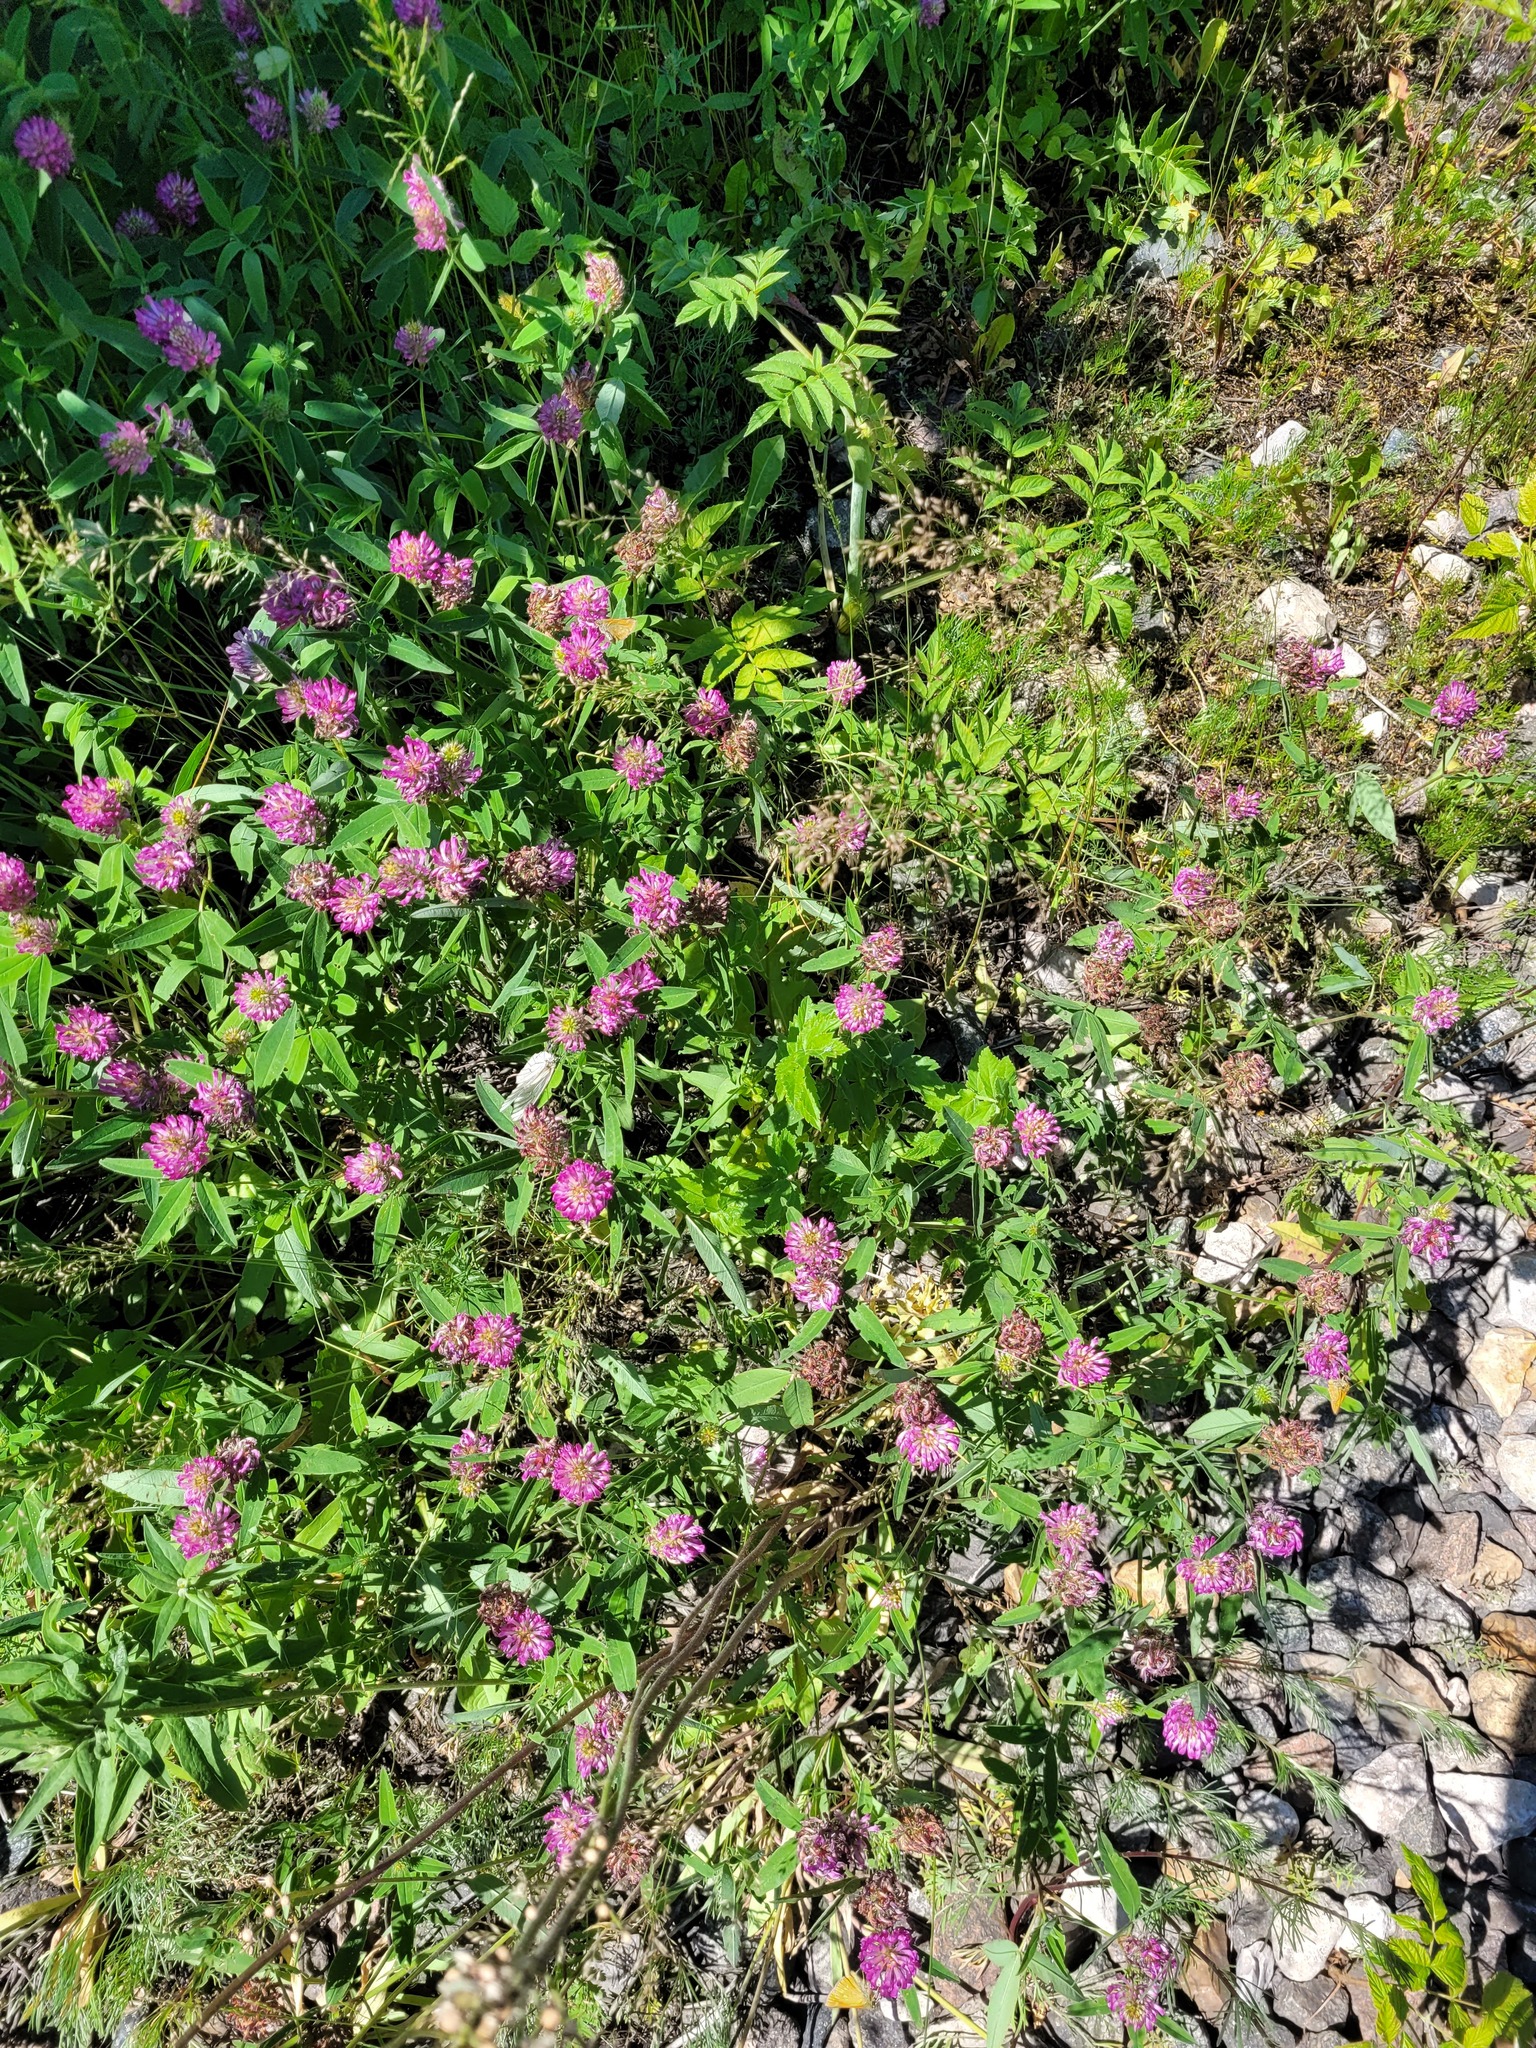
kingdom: Plantae
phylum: Tracheophyta
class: Magnoliopsida
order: Fabales
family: Fabaceae
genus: Trifolium
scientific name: Trifolium medium
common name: Zigzag clover
